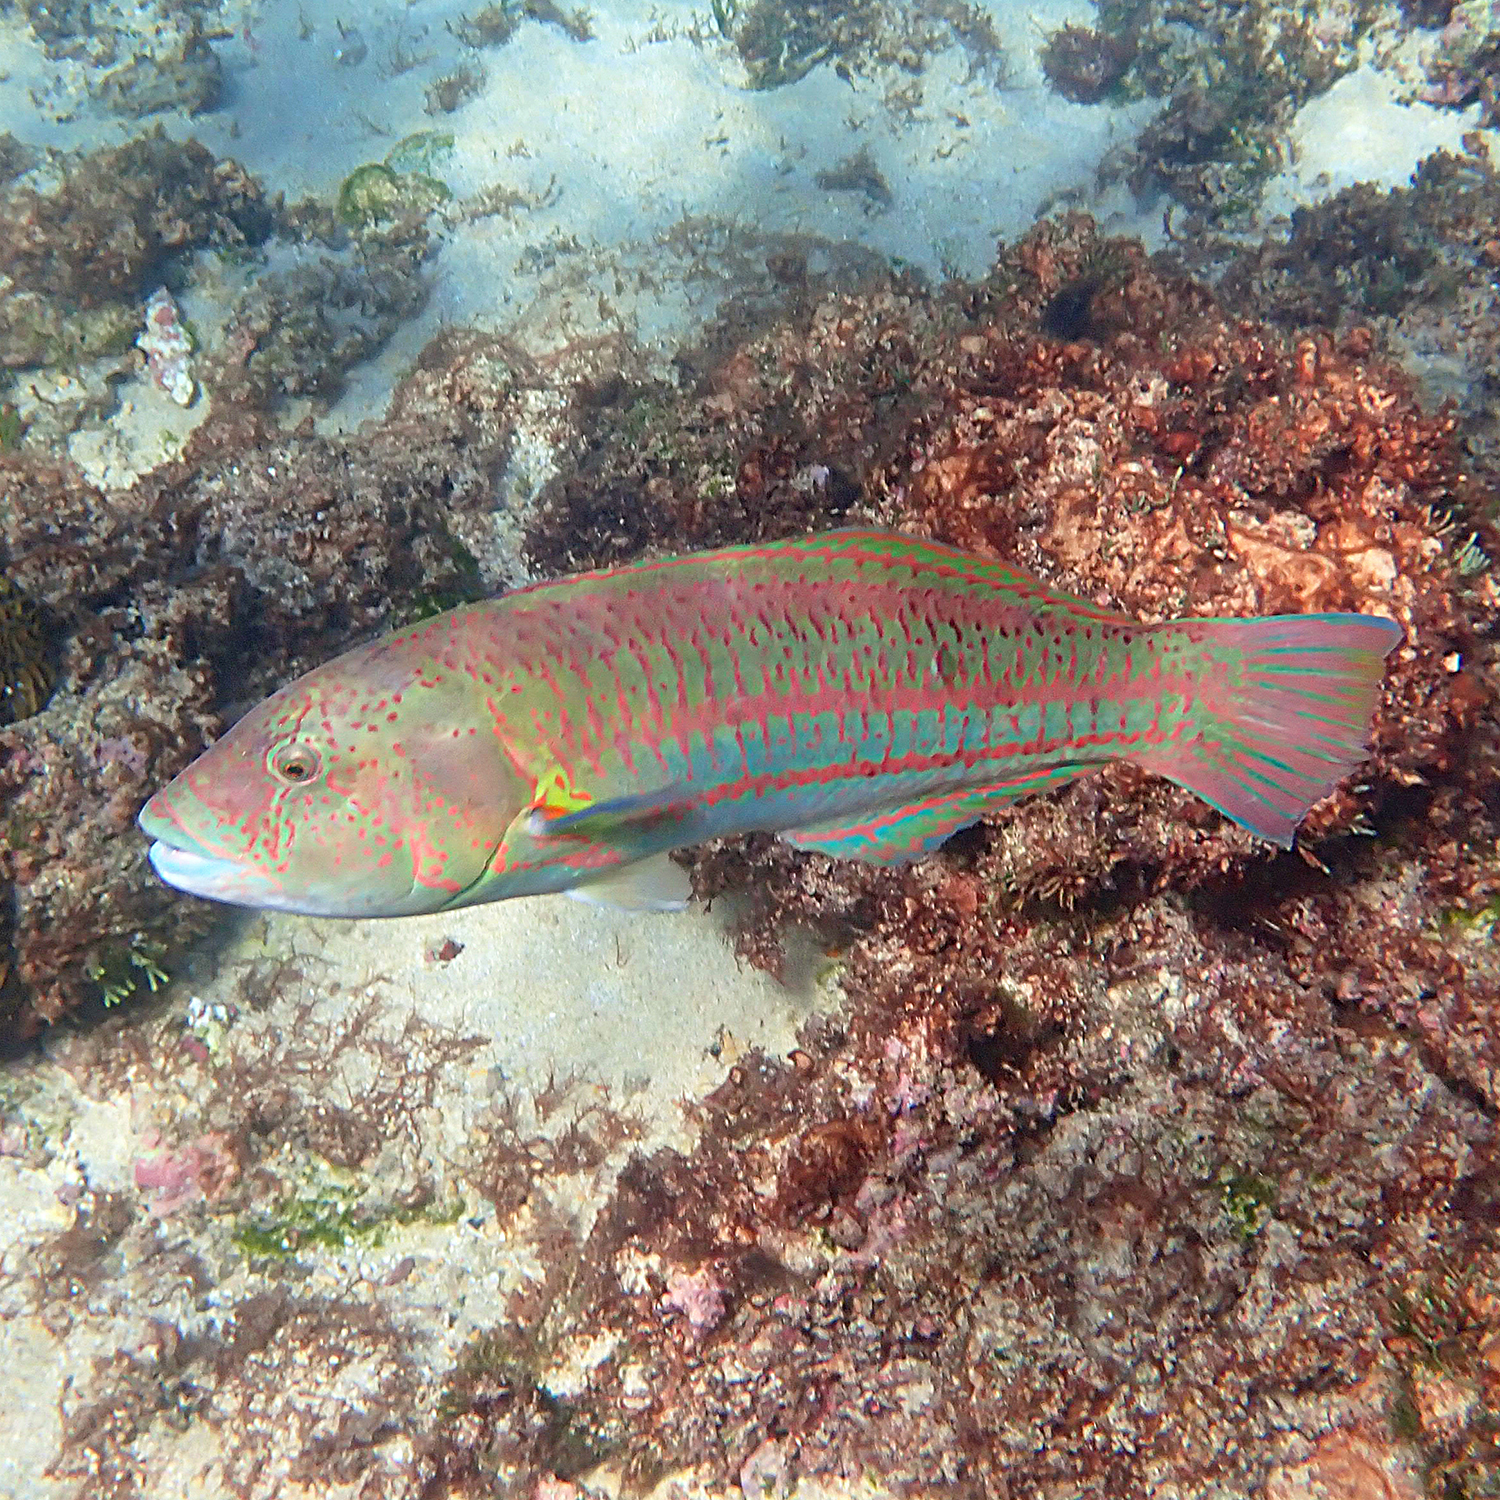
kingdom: Animalia
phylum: Chordata
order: Perciformes
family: Labridae
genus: Thalassoma
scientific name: Thalassoma purpureum
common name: Parrotfish
